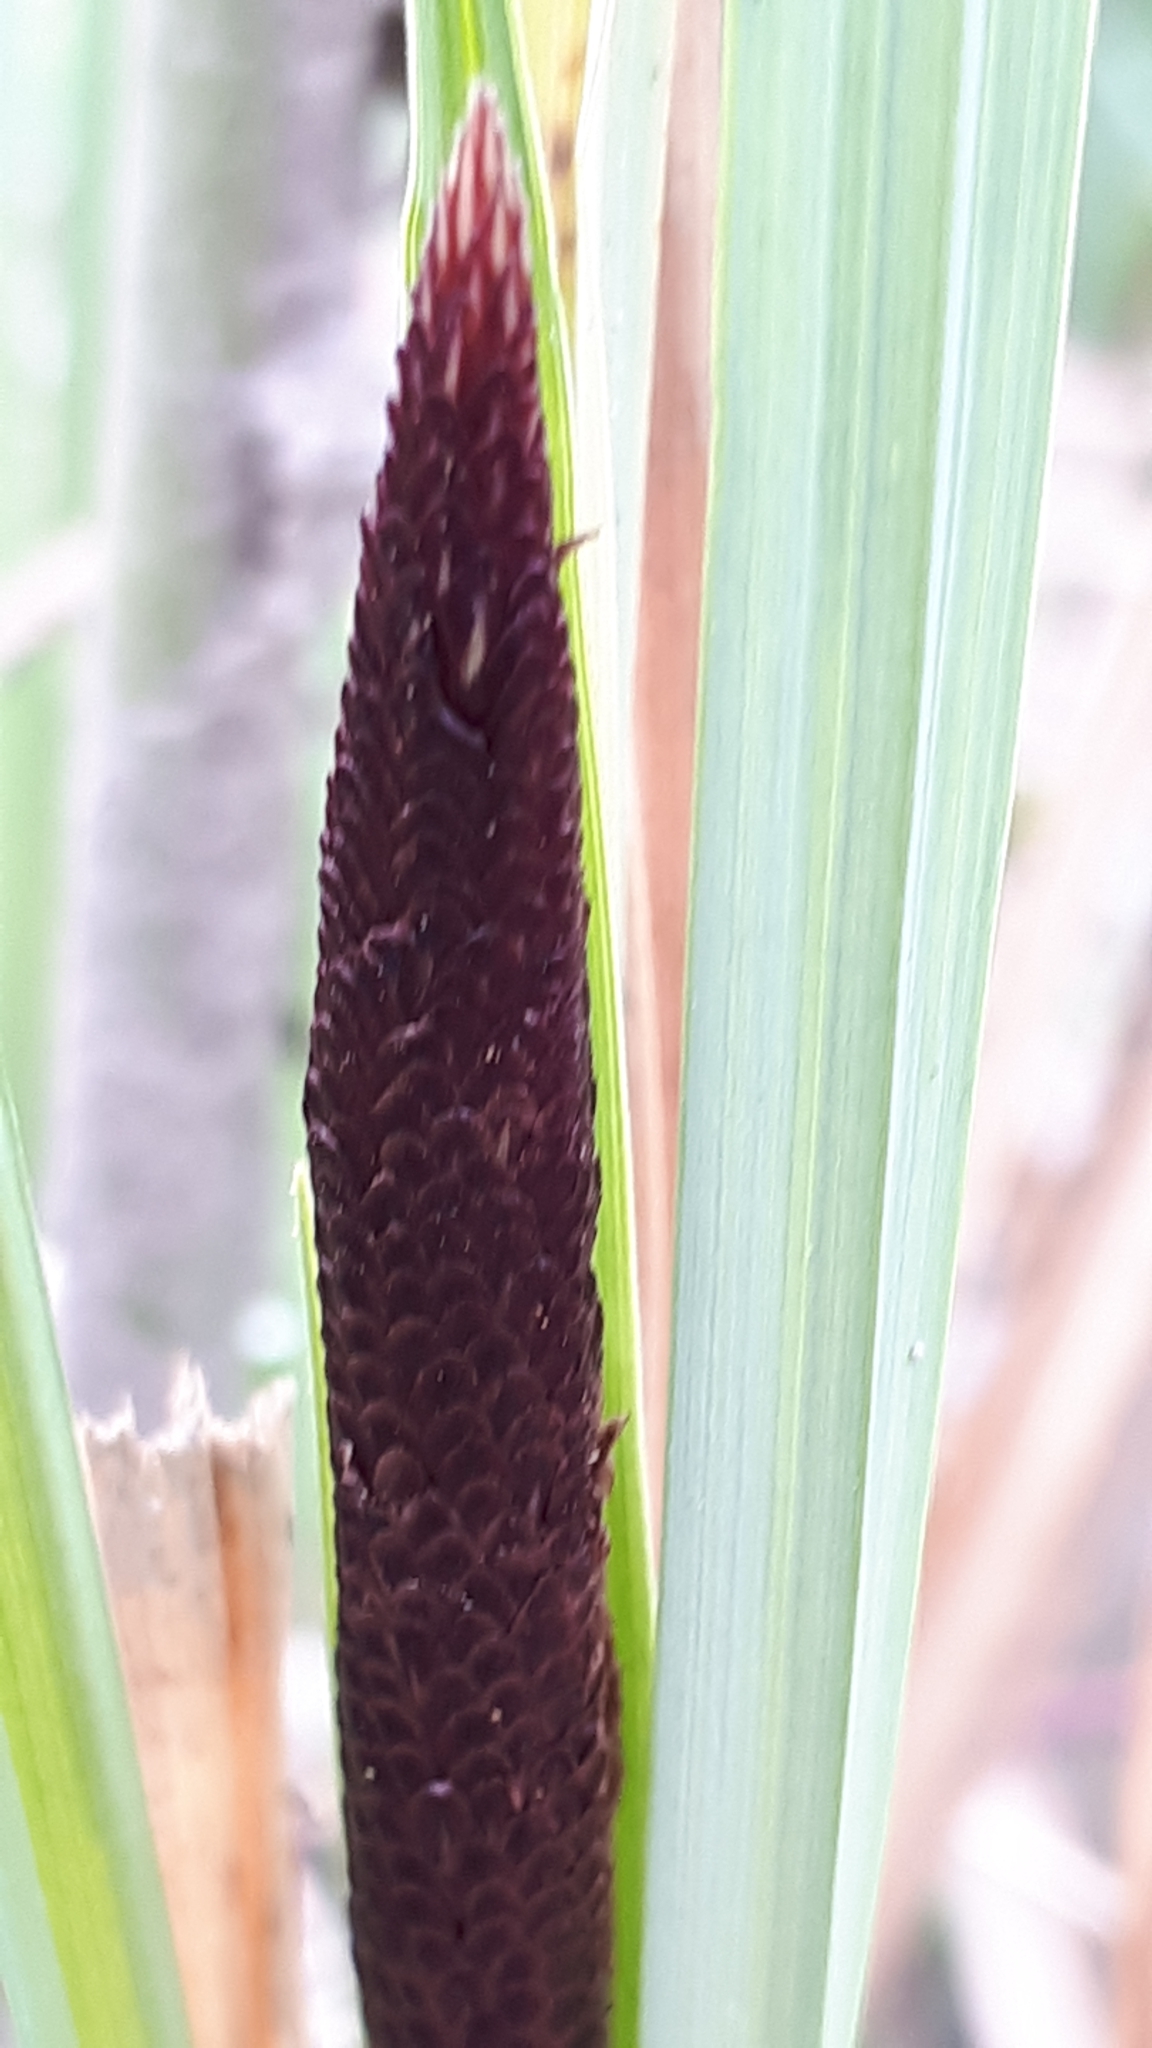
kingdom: Plantae
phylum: Tracheophyta
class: Liliopsida
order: Poales
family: Cyperaceae
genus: Carex
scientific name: Carex acutiformis
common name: Lesser pond-sedge
